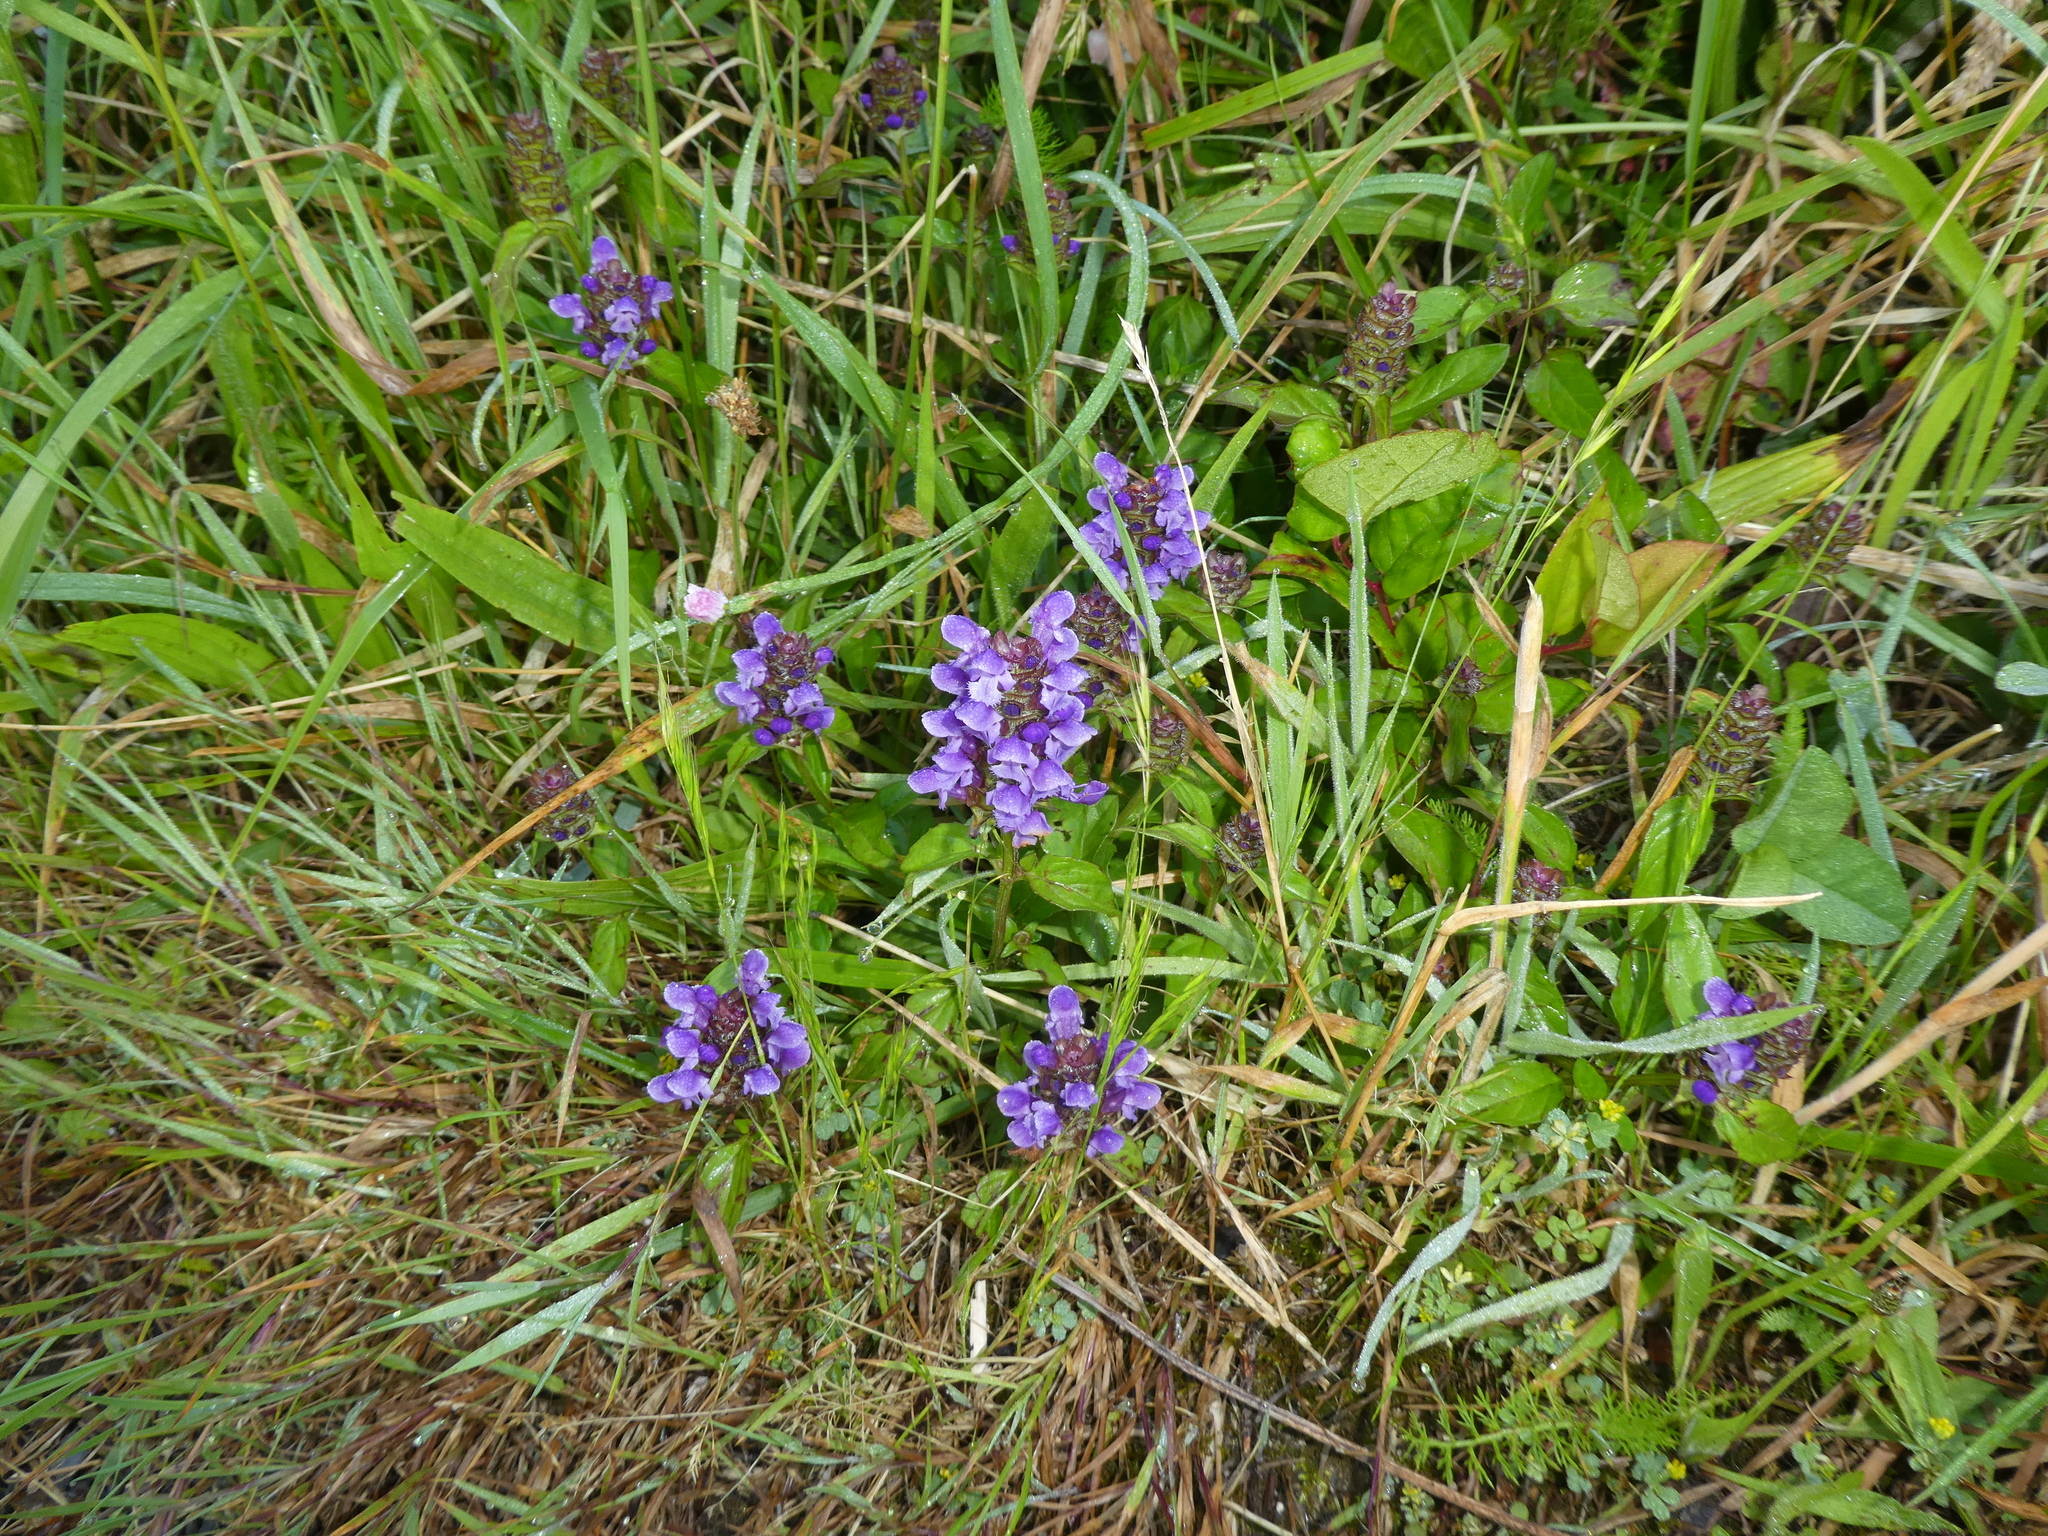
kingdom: Plantae
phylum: Tracheophyta
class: Magnoliopsida
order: Lamiales
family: Lamiaceae
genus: Prunella
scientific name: Prunella vulgaris
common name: Heal-all
